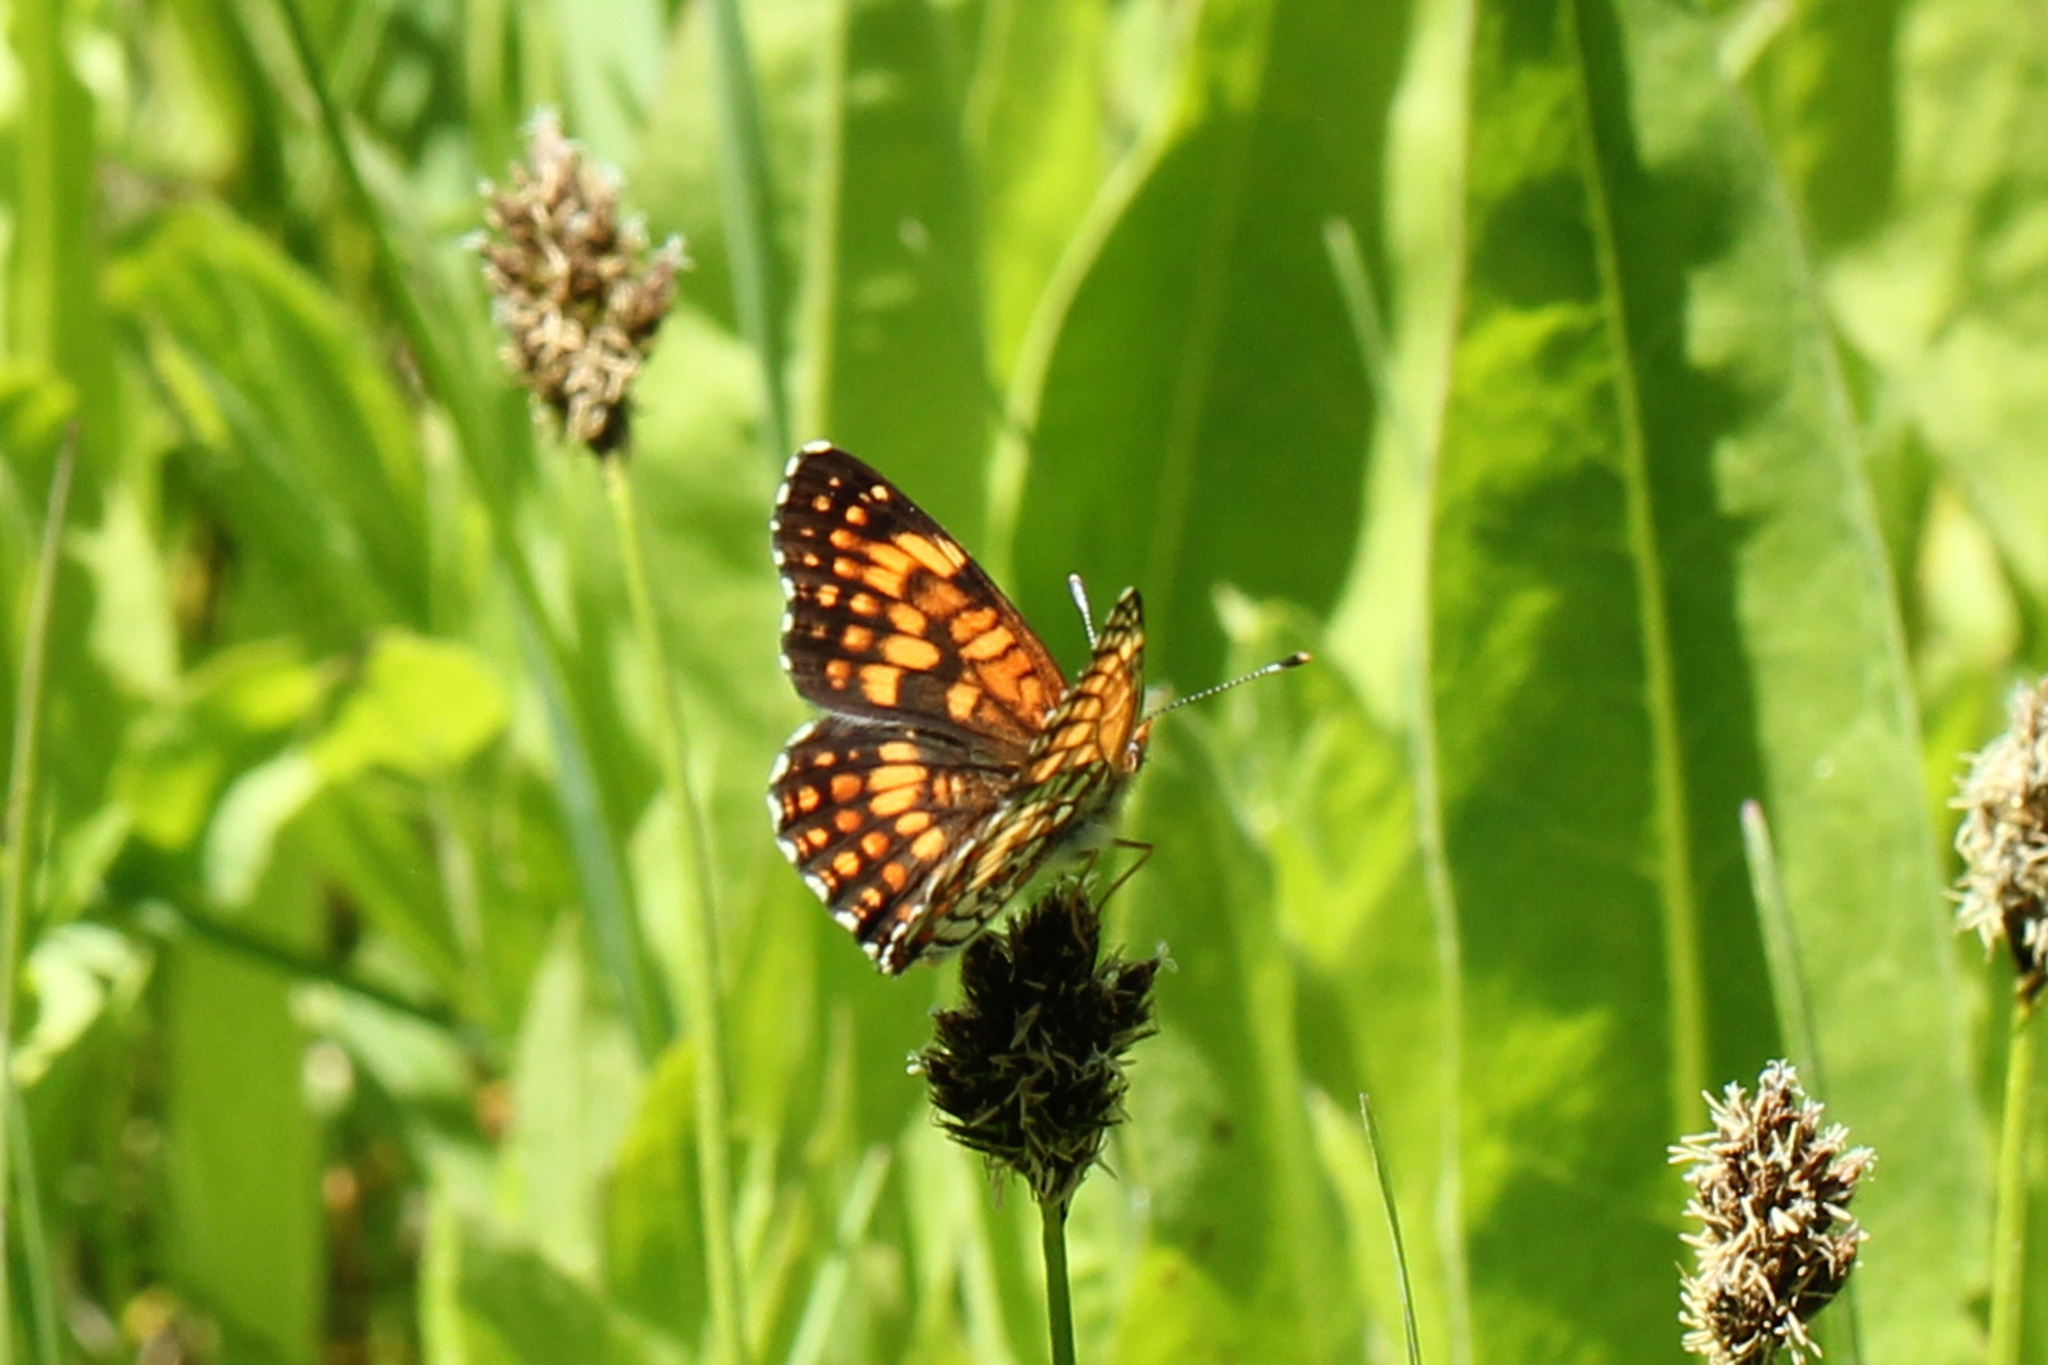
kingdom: Animalia
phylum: Arthropoda
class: Insecta
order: Lepidoptera
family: Nymphalidae
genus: Chlosyne
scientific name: Chlosyne palla
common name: Northern checkerspot
